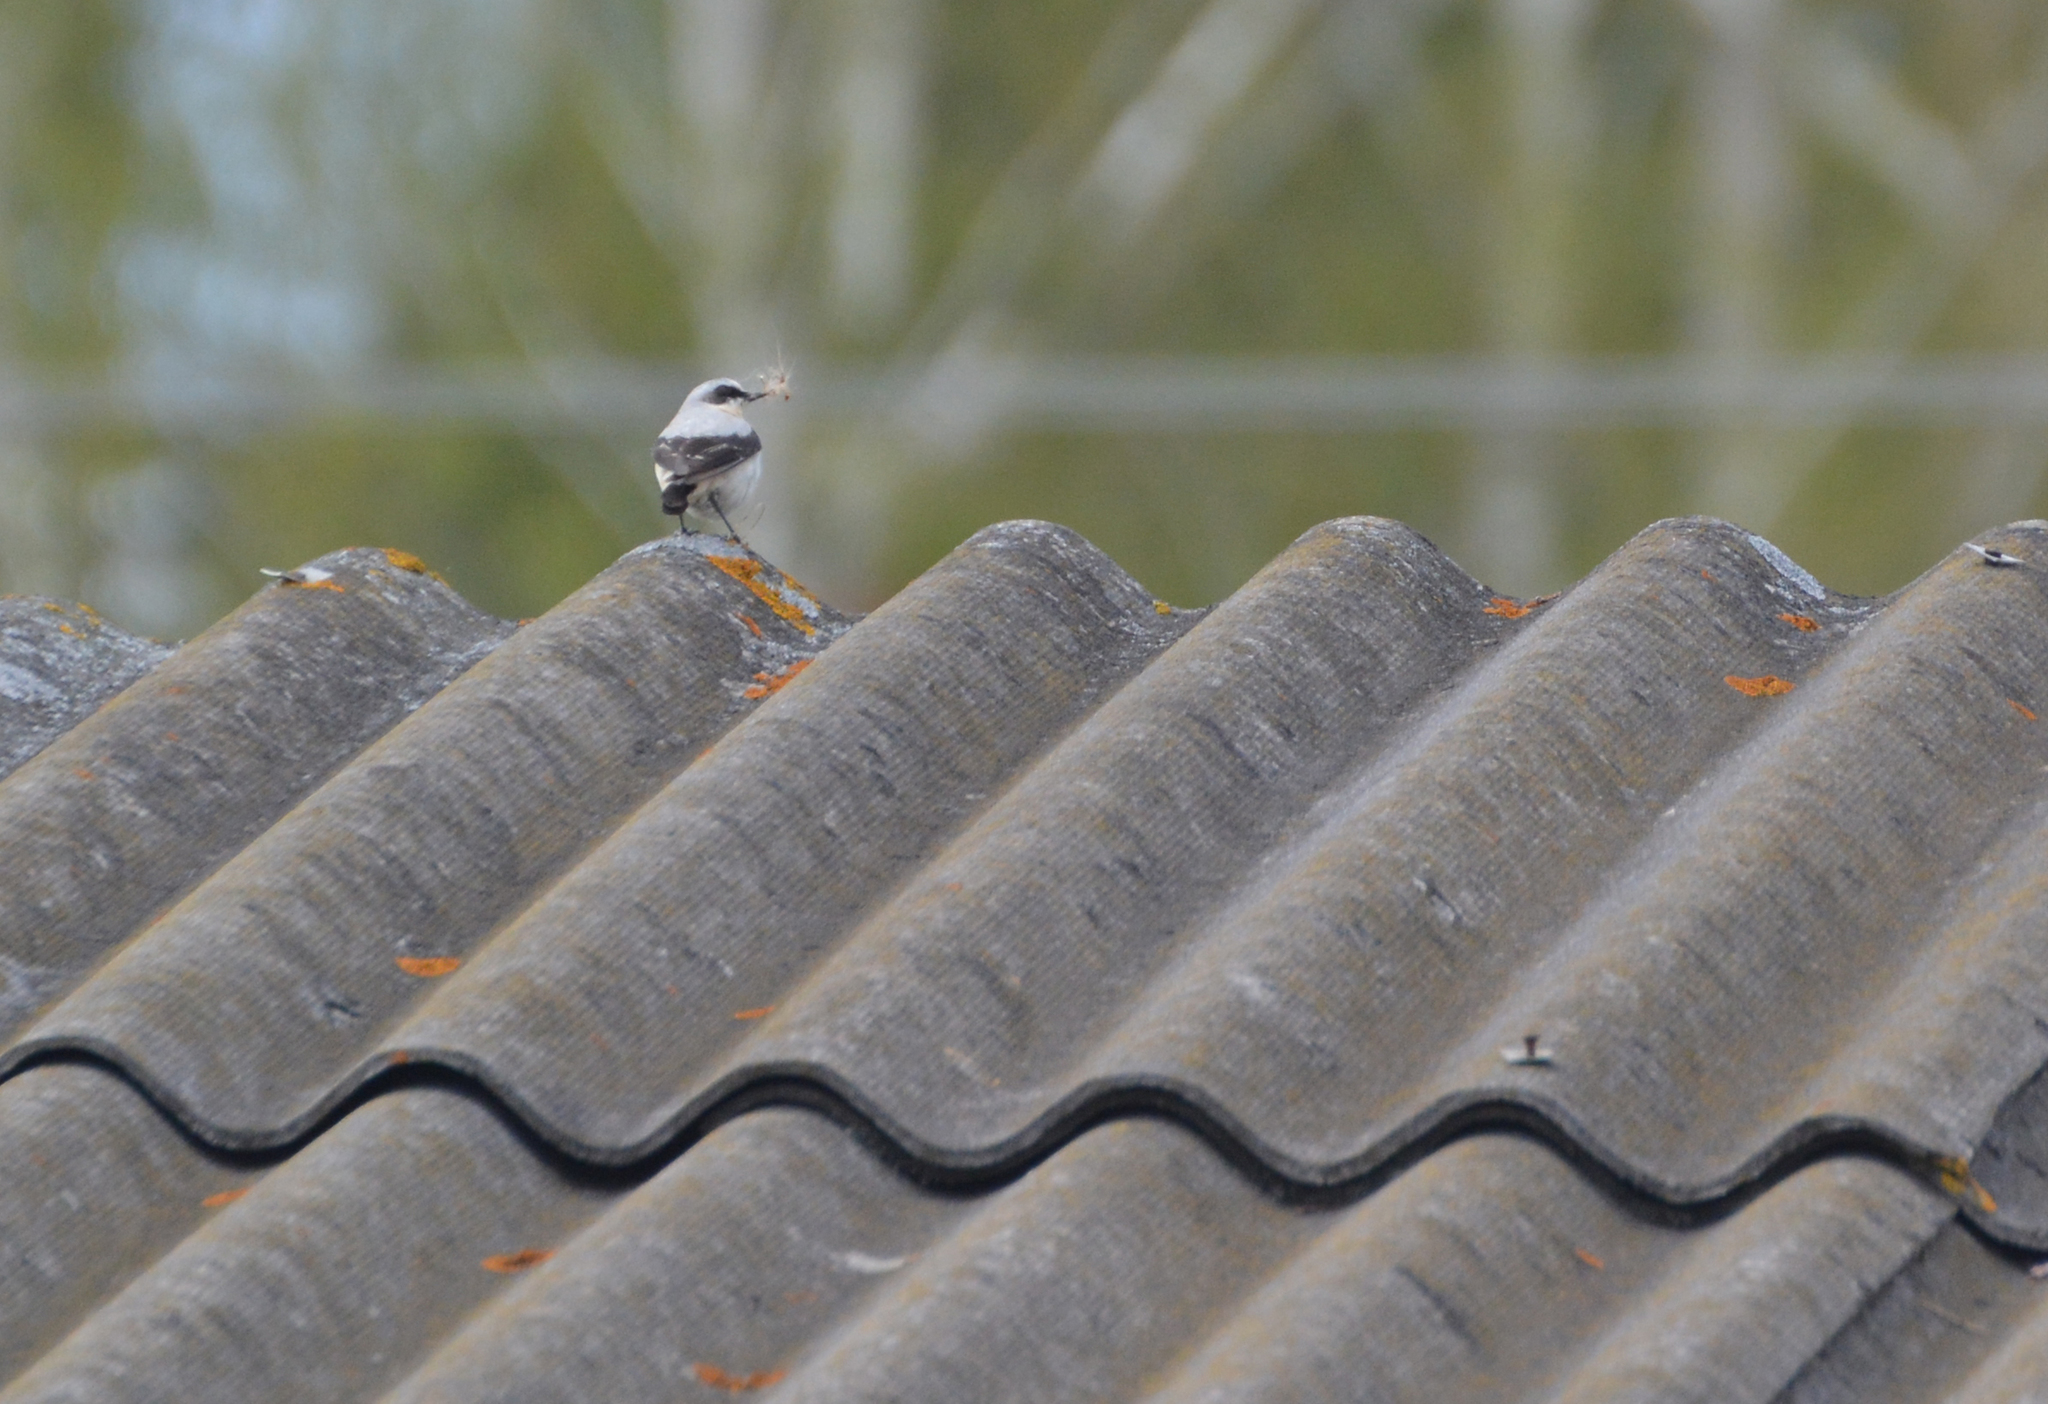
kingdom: Animalia
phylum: Chordata
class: Aves
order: Passeriformes
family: Muscicapidae
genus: Oenanthe
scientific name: Oenanthe oenanthe
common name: Northern wheatear
